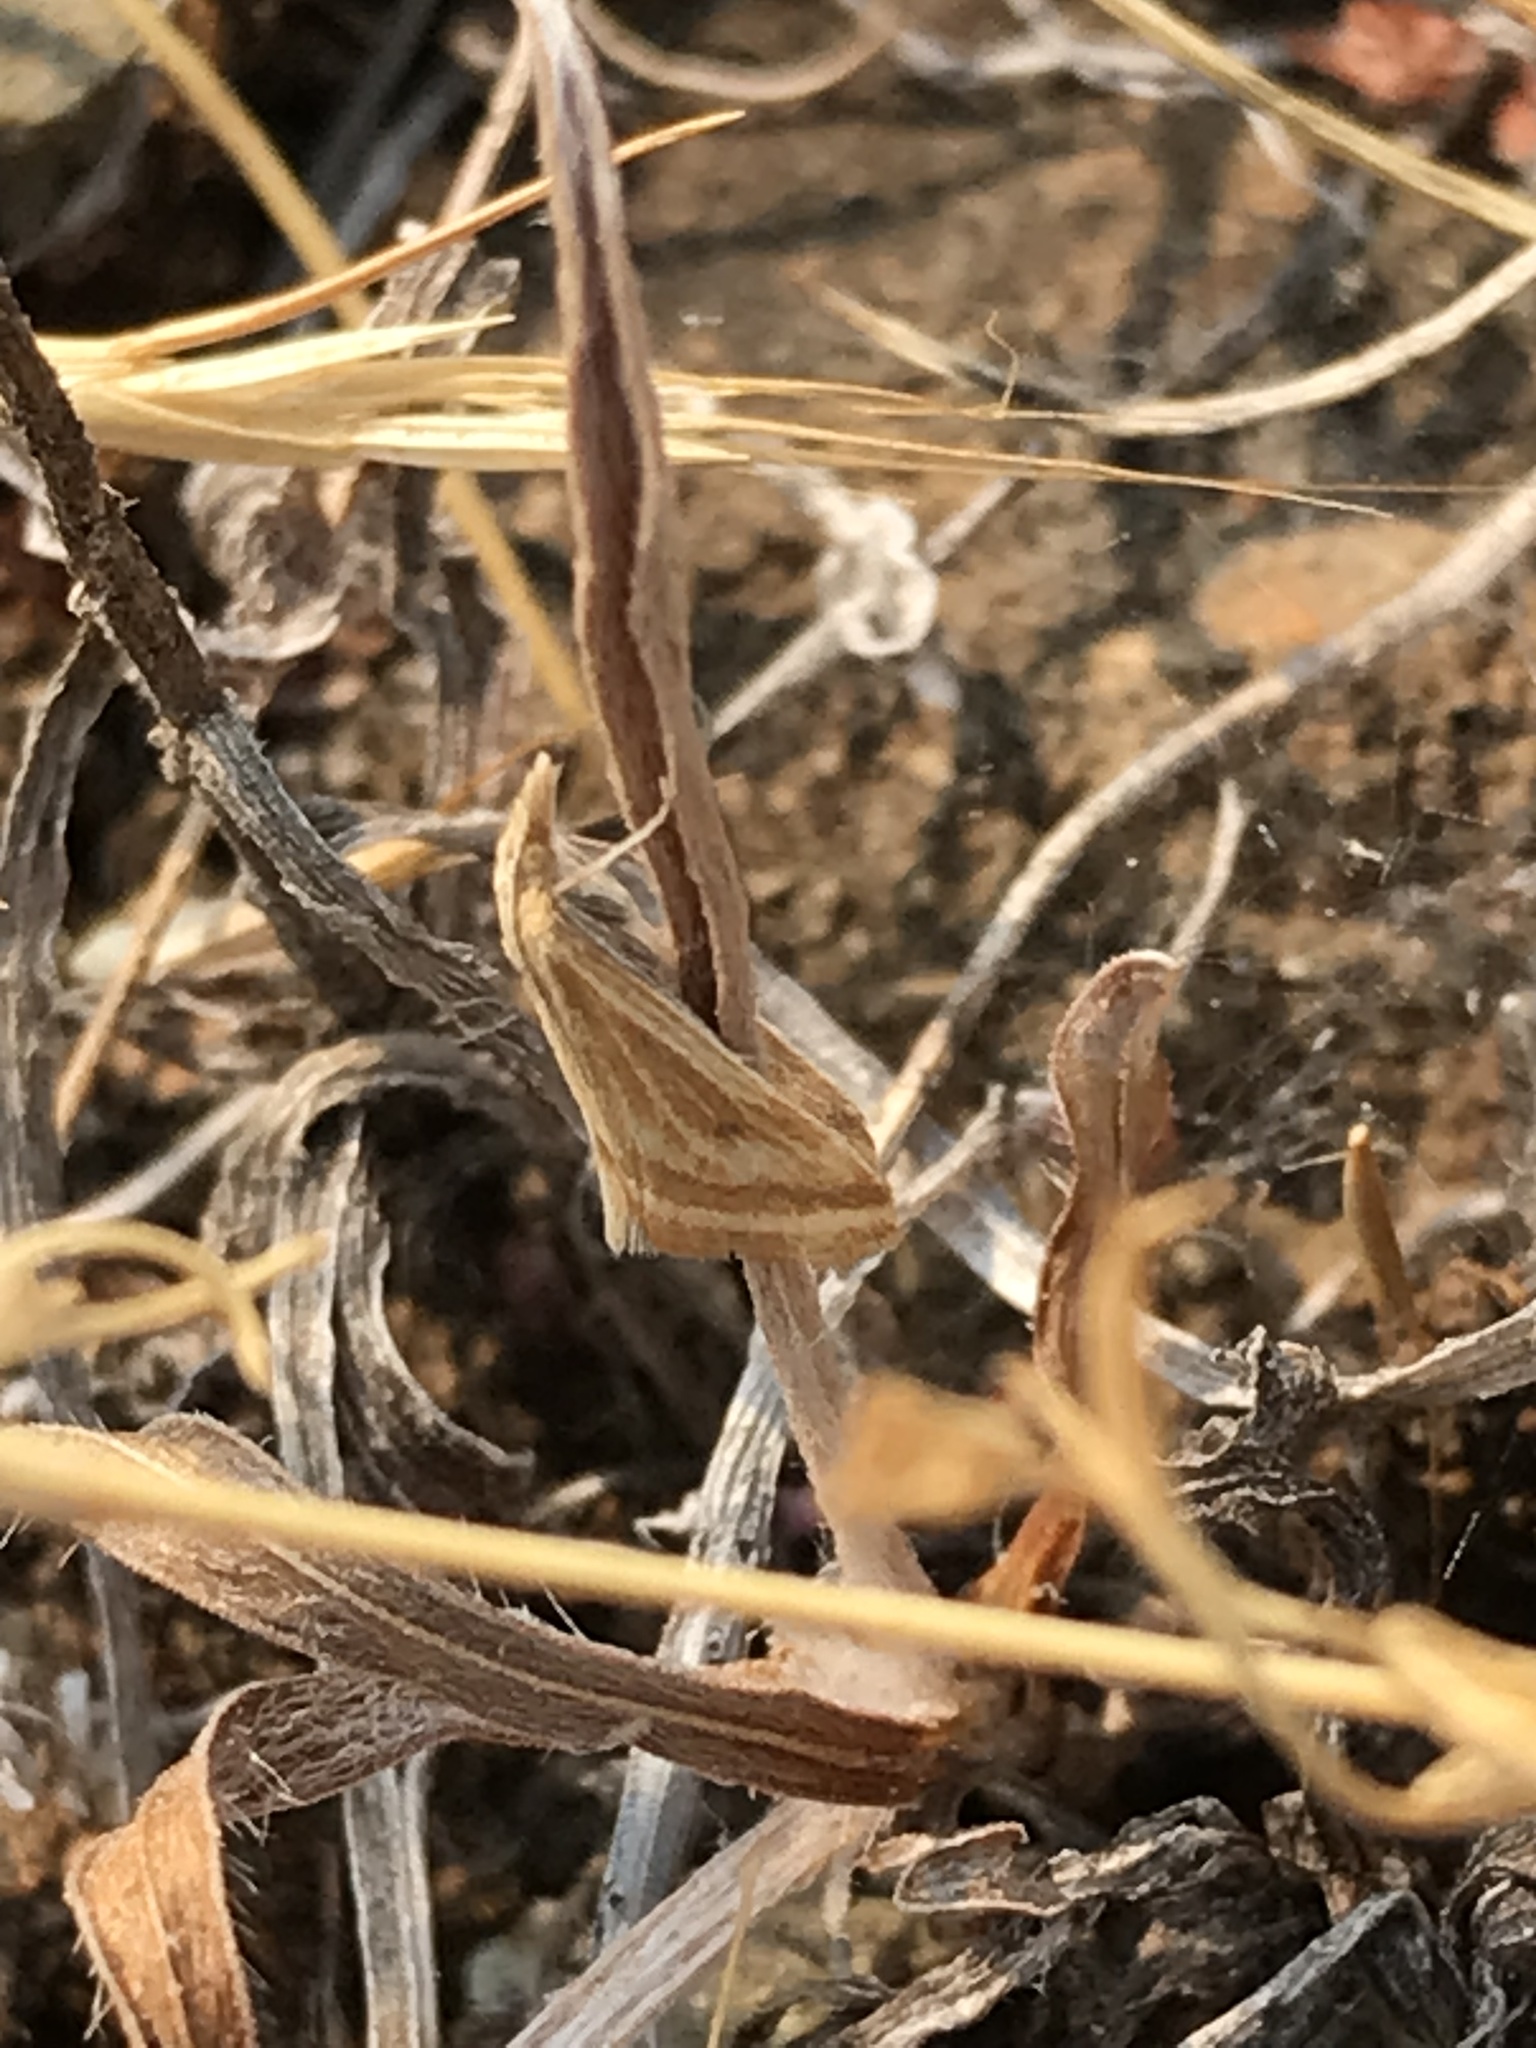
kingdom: Animalia
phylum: Arthropoda
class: Insecta
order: Lepidoptera
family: Crambidae
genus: Microtheoris
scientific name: Microtheoris ophionalis
